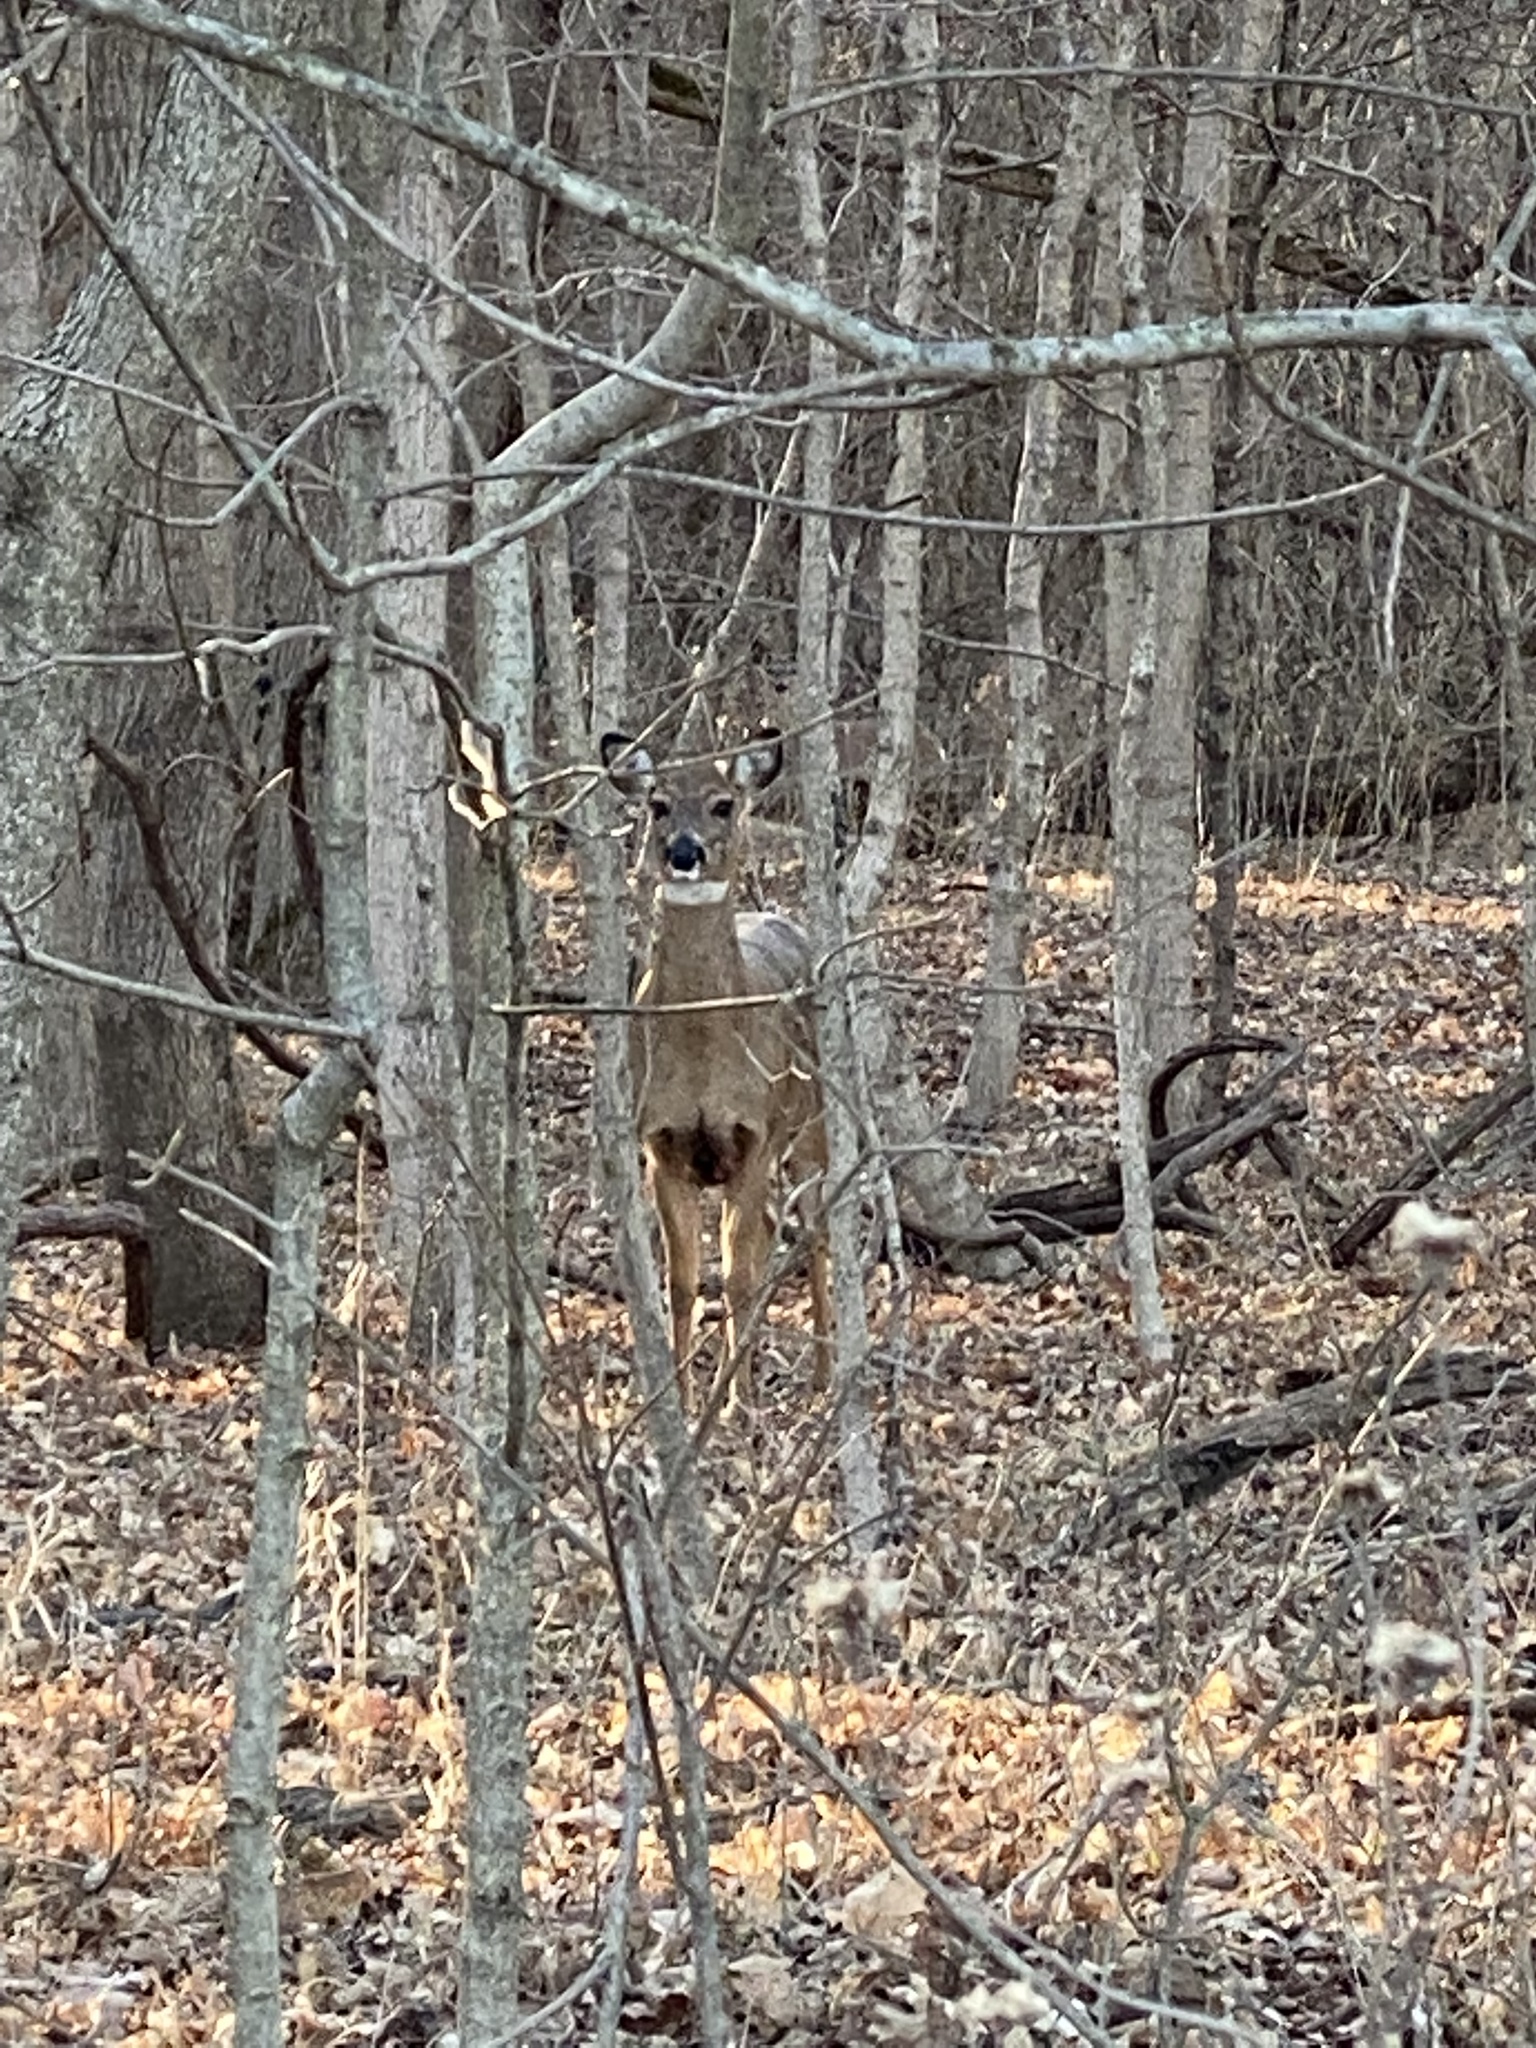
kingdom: Animalia
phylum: Chordata
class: Mammalia
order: Artiodactyla
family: Cervidae
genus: Odocoileus
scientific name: Odocoileus virginianus
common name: White-tailed deer
